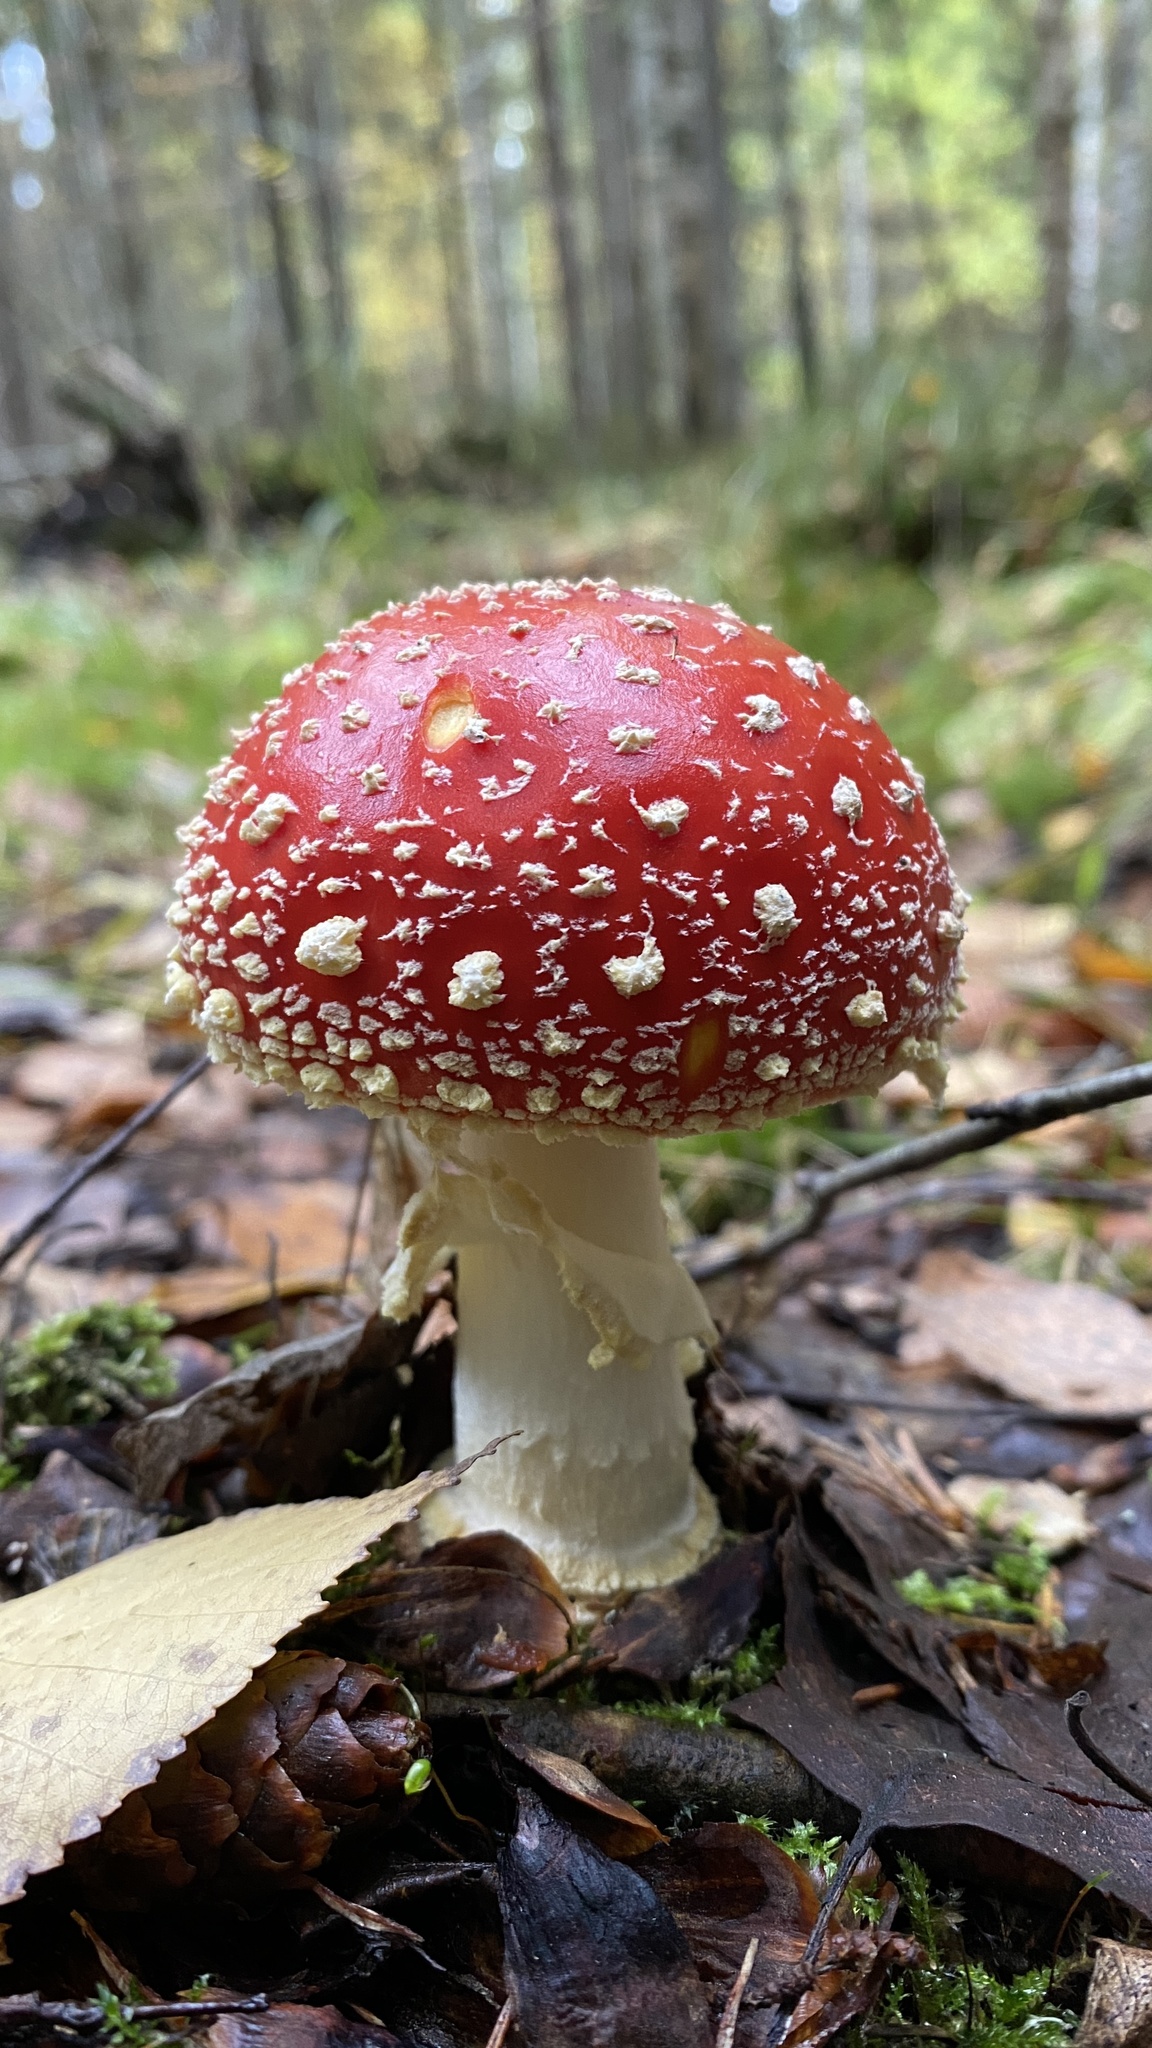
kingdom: Fungi
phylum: Basidiomycota
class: Agaricomycetes
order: Agaricales
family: Amanitaceae
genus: Amanita
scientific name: Amanita muscaria
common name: Fly agaric
